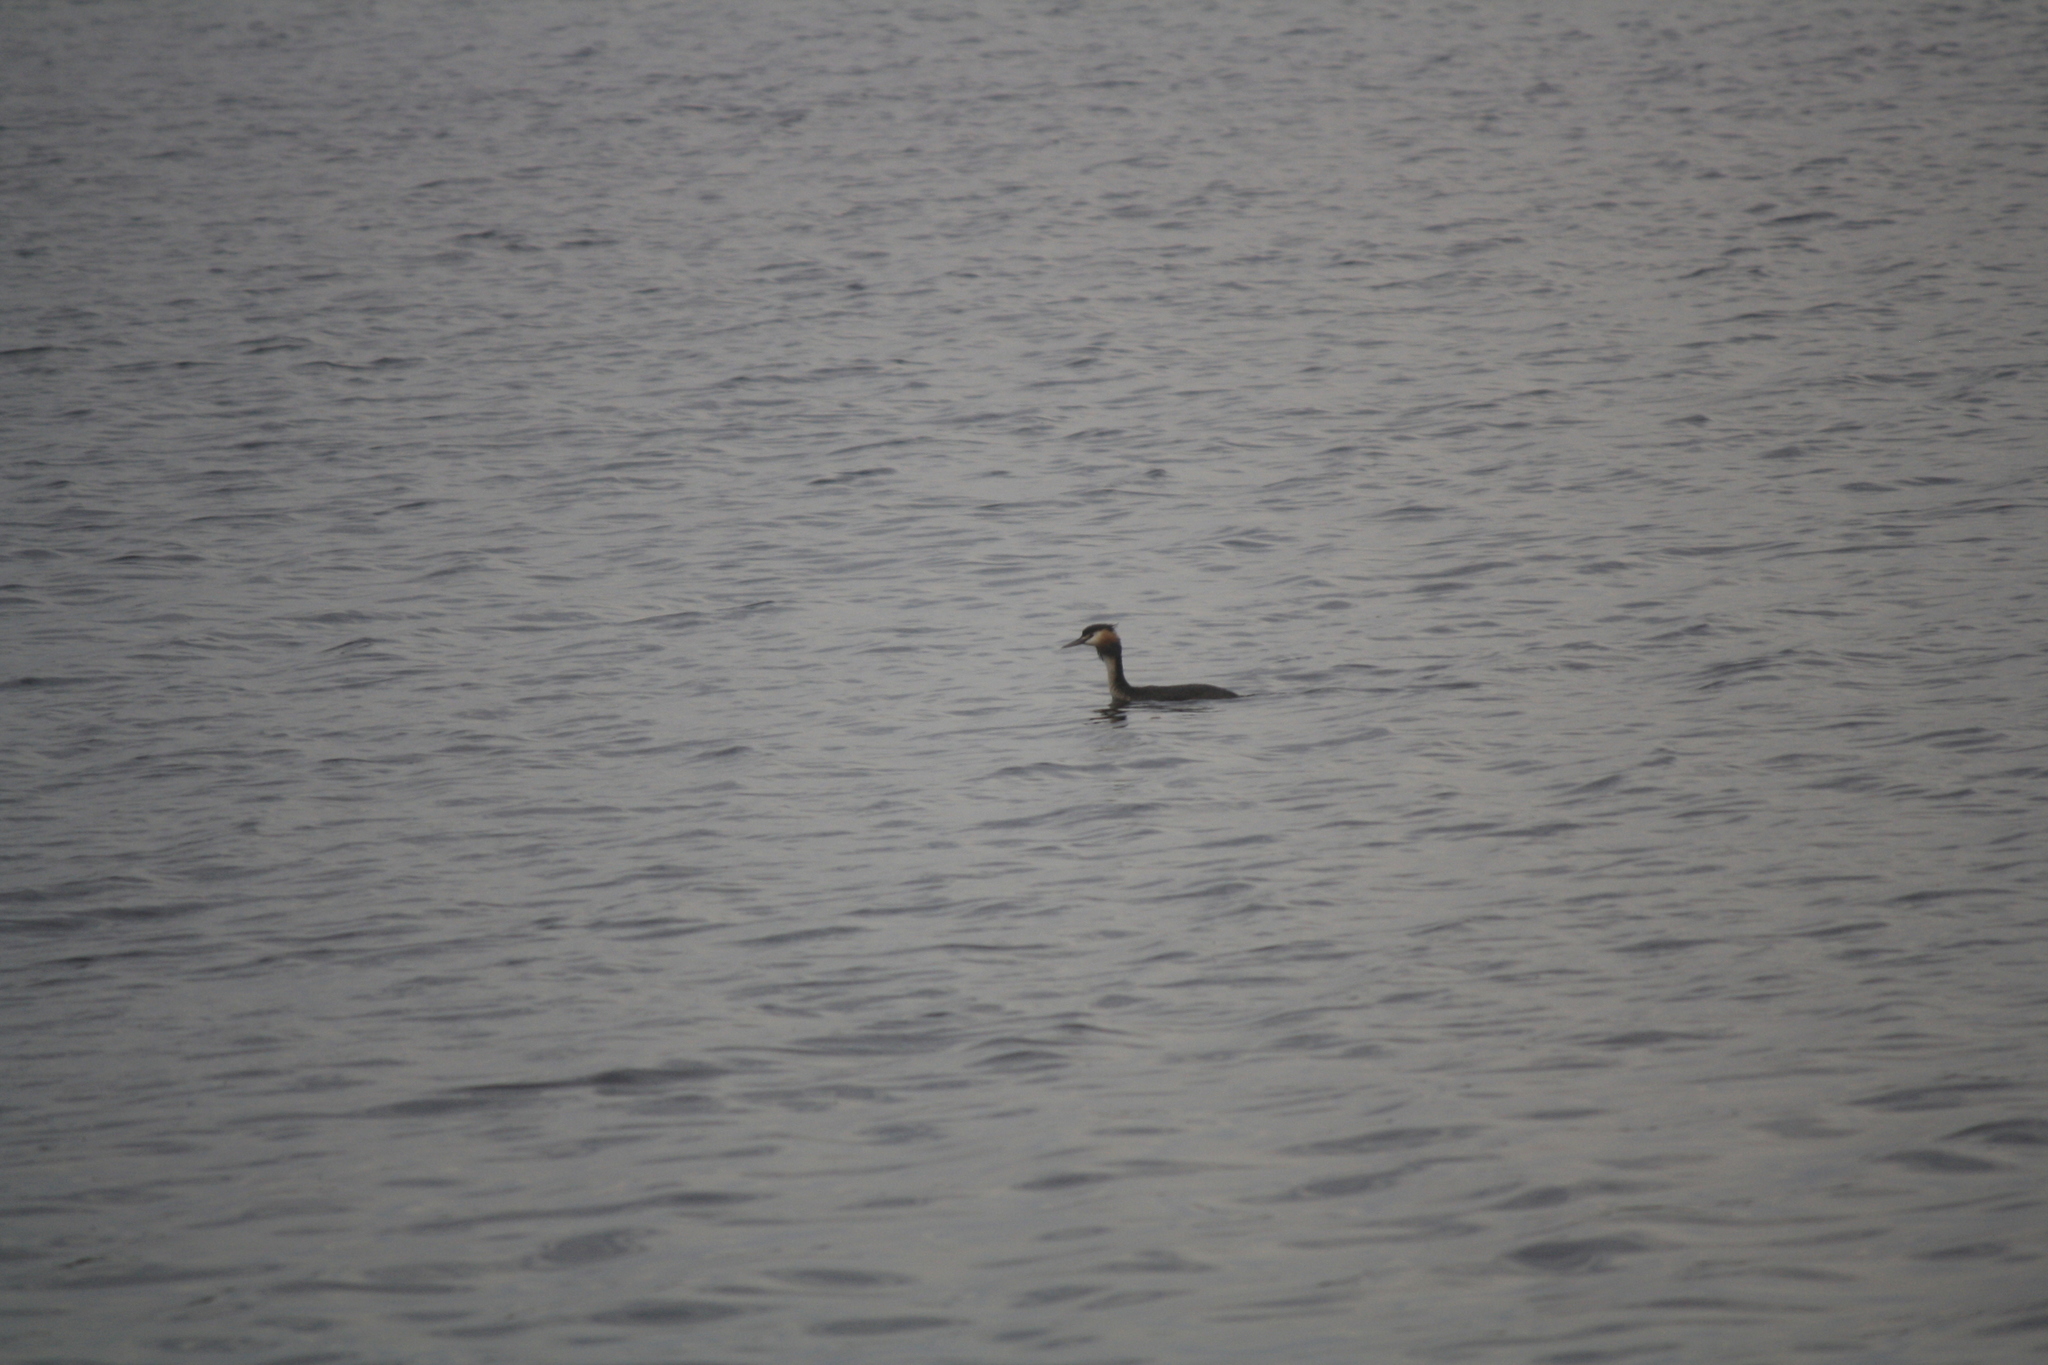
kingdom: Animalia
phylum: Chordata
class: Aves
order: Podicipediformes
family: Podicipedidae
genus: Podiceps
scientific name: Podiceps cristatus
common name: Great crested grebe
